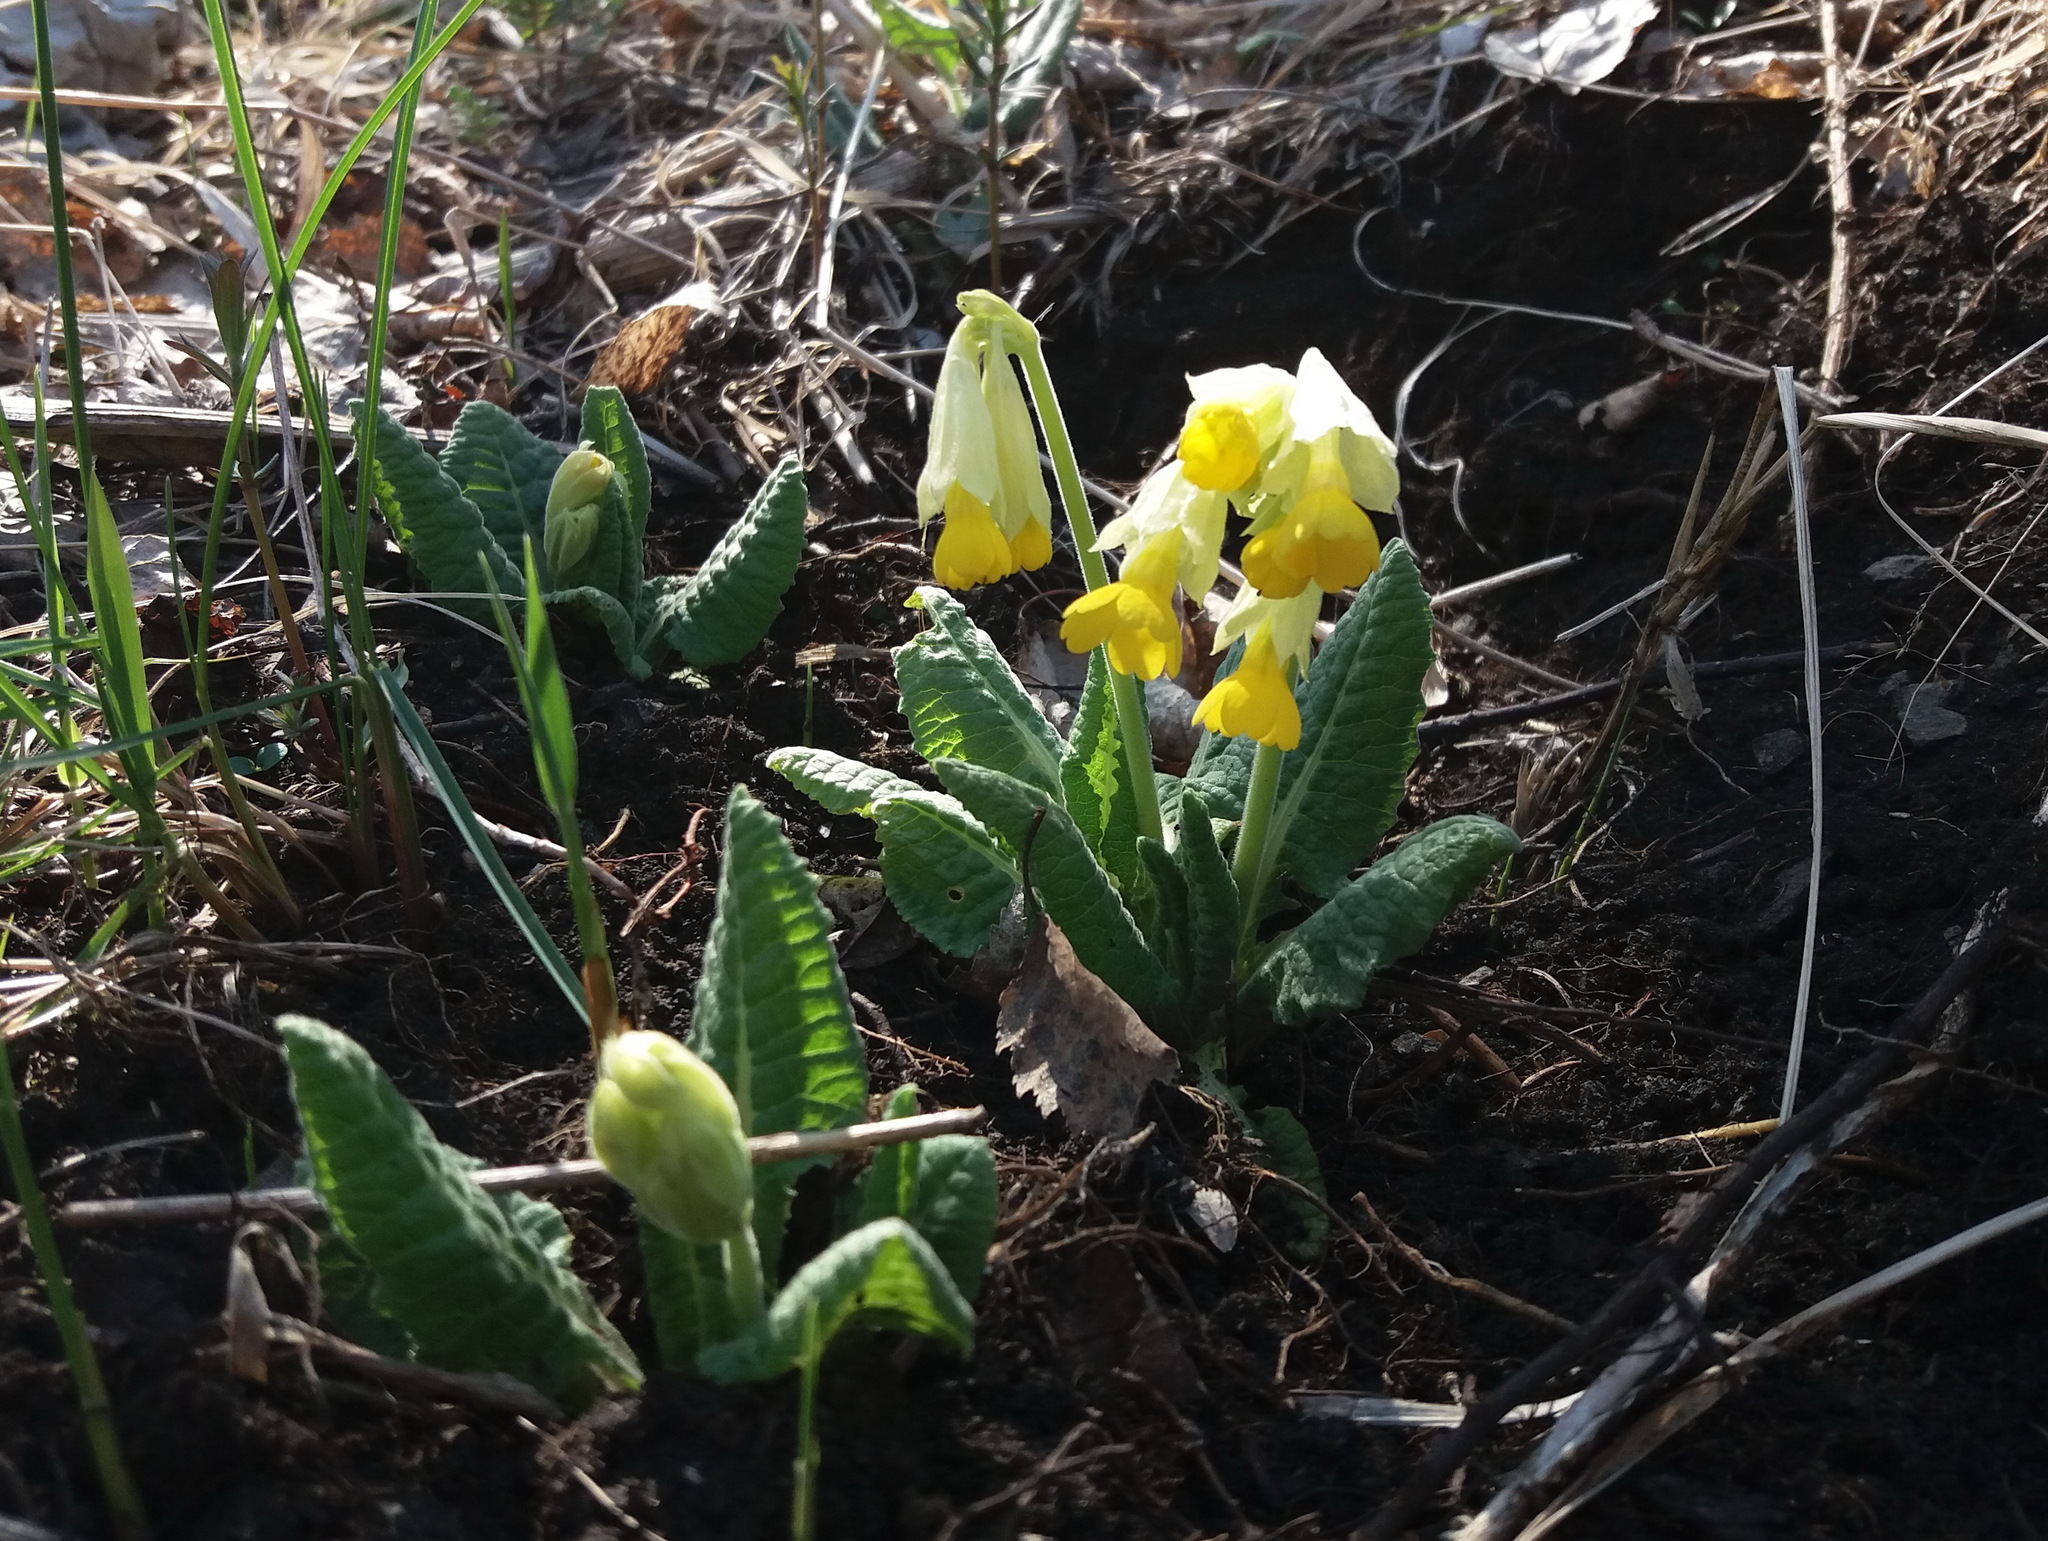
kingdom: Plantae
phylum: Tracheophyta
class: Magnoliopsida
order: Ericales
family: Primulaceae
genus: Primula
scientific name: Primula veris
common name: Cowslip
